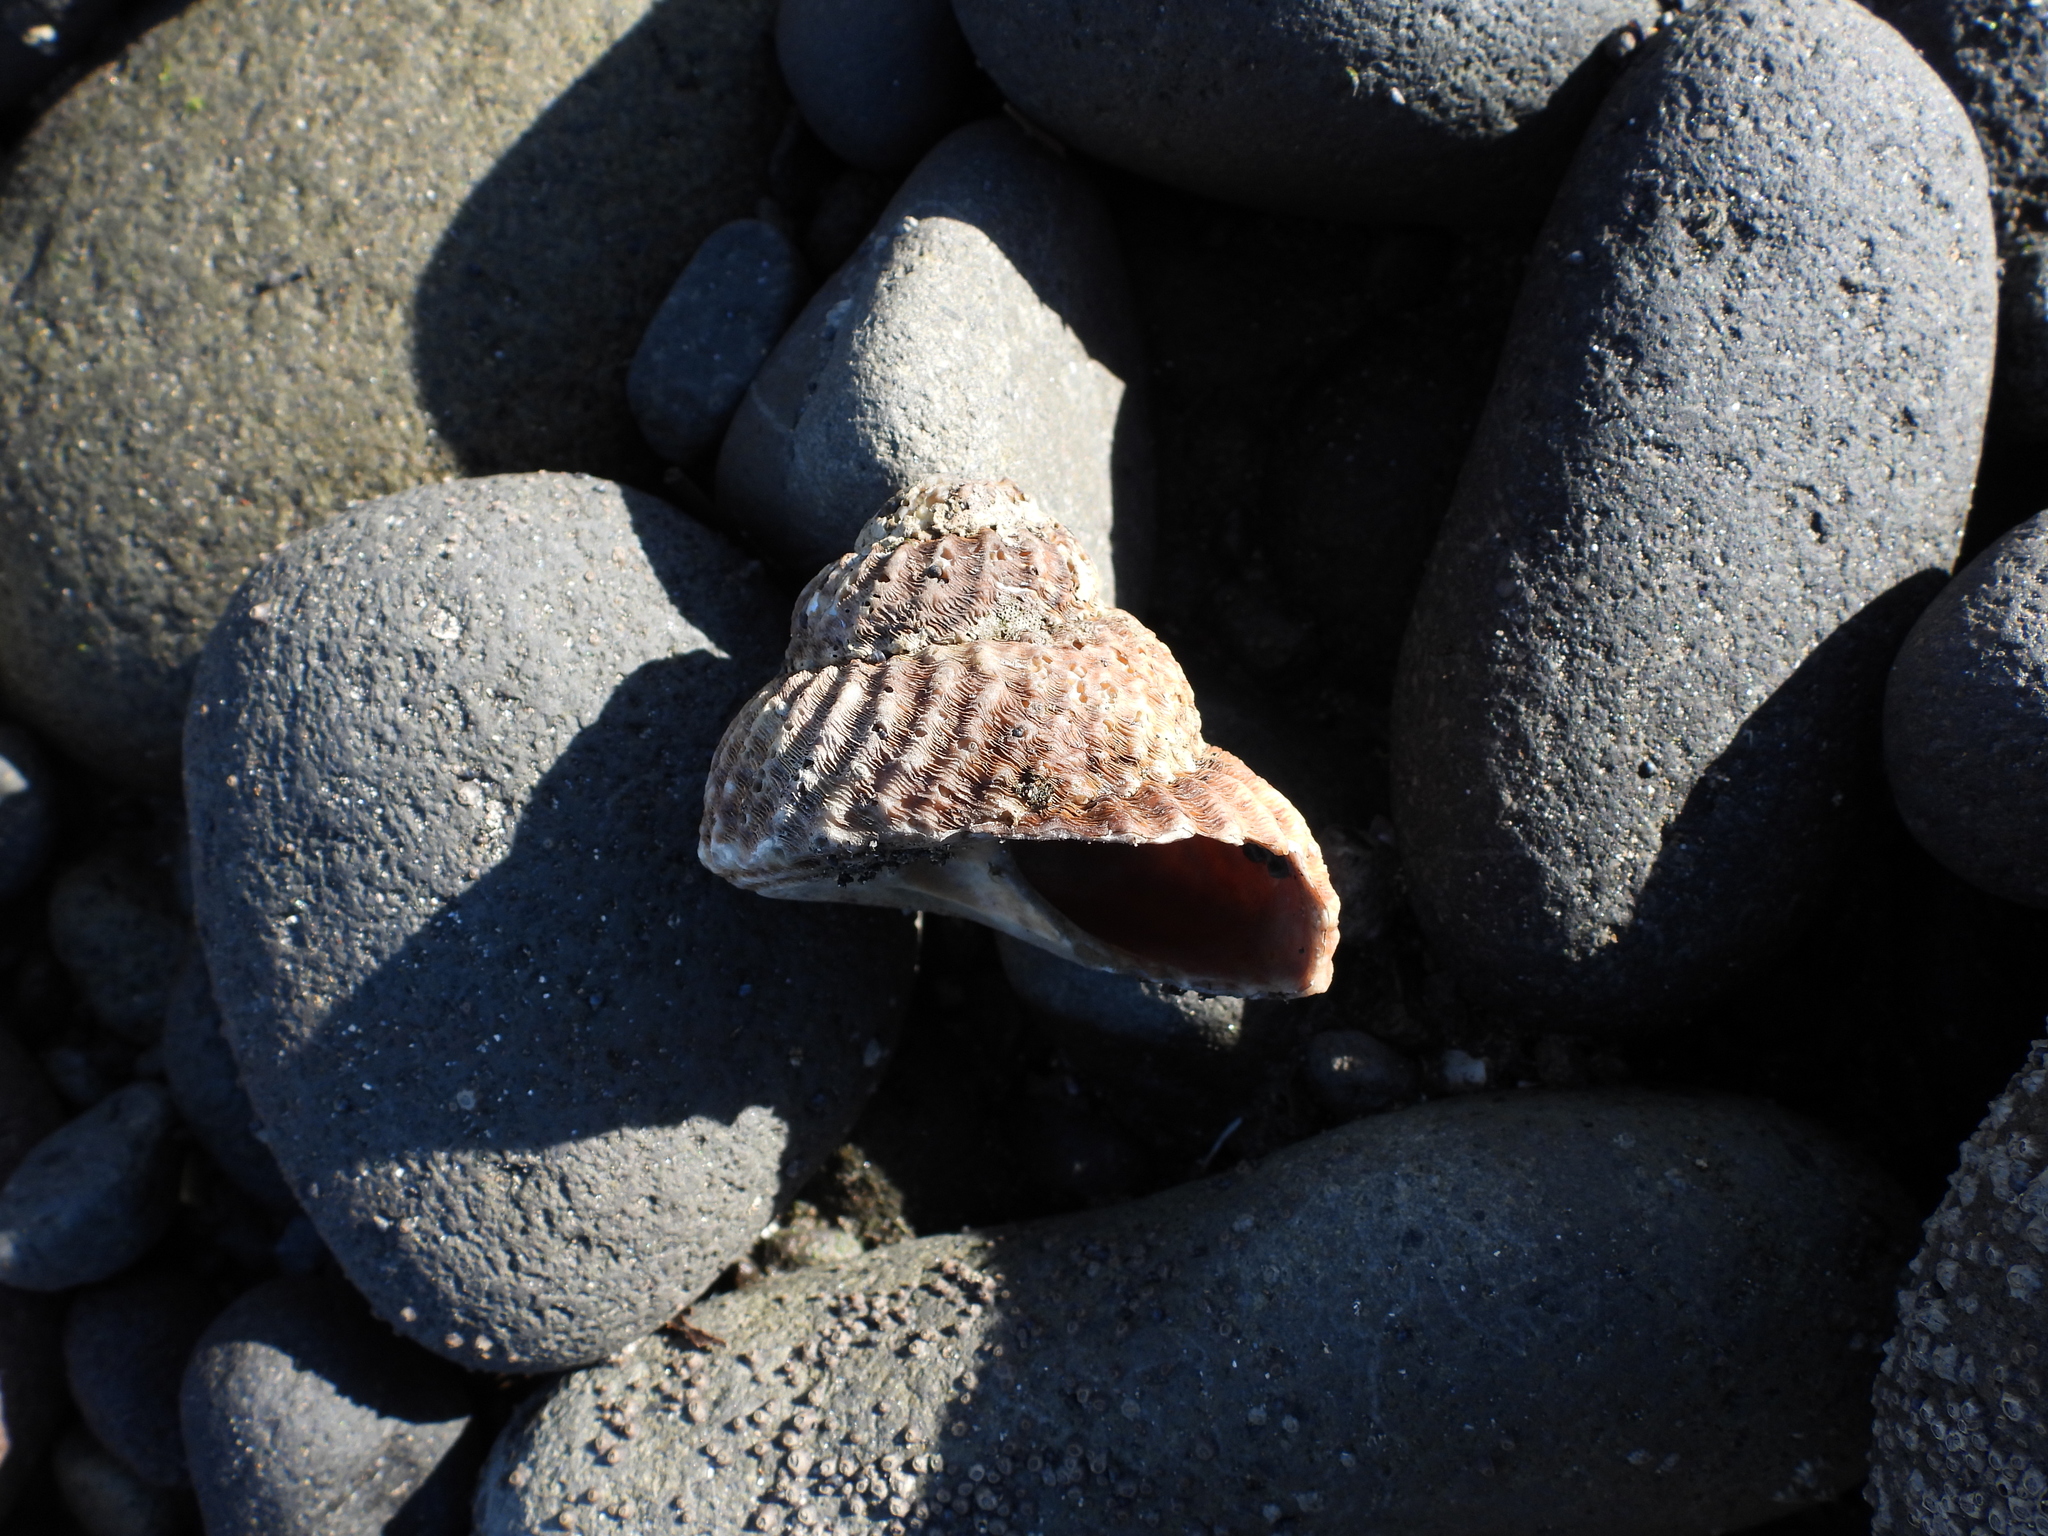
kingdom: Animalia
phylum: Mollusca
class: Gastropoda
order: Trochida
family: Turbinidae
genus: Cookia
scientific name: Cookia sulcata
